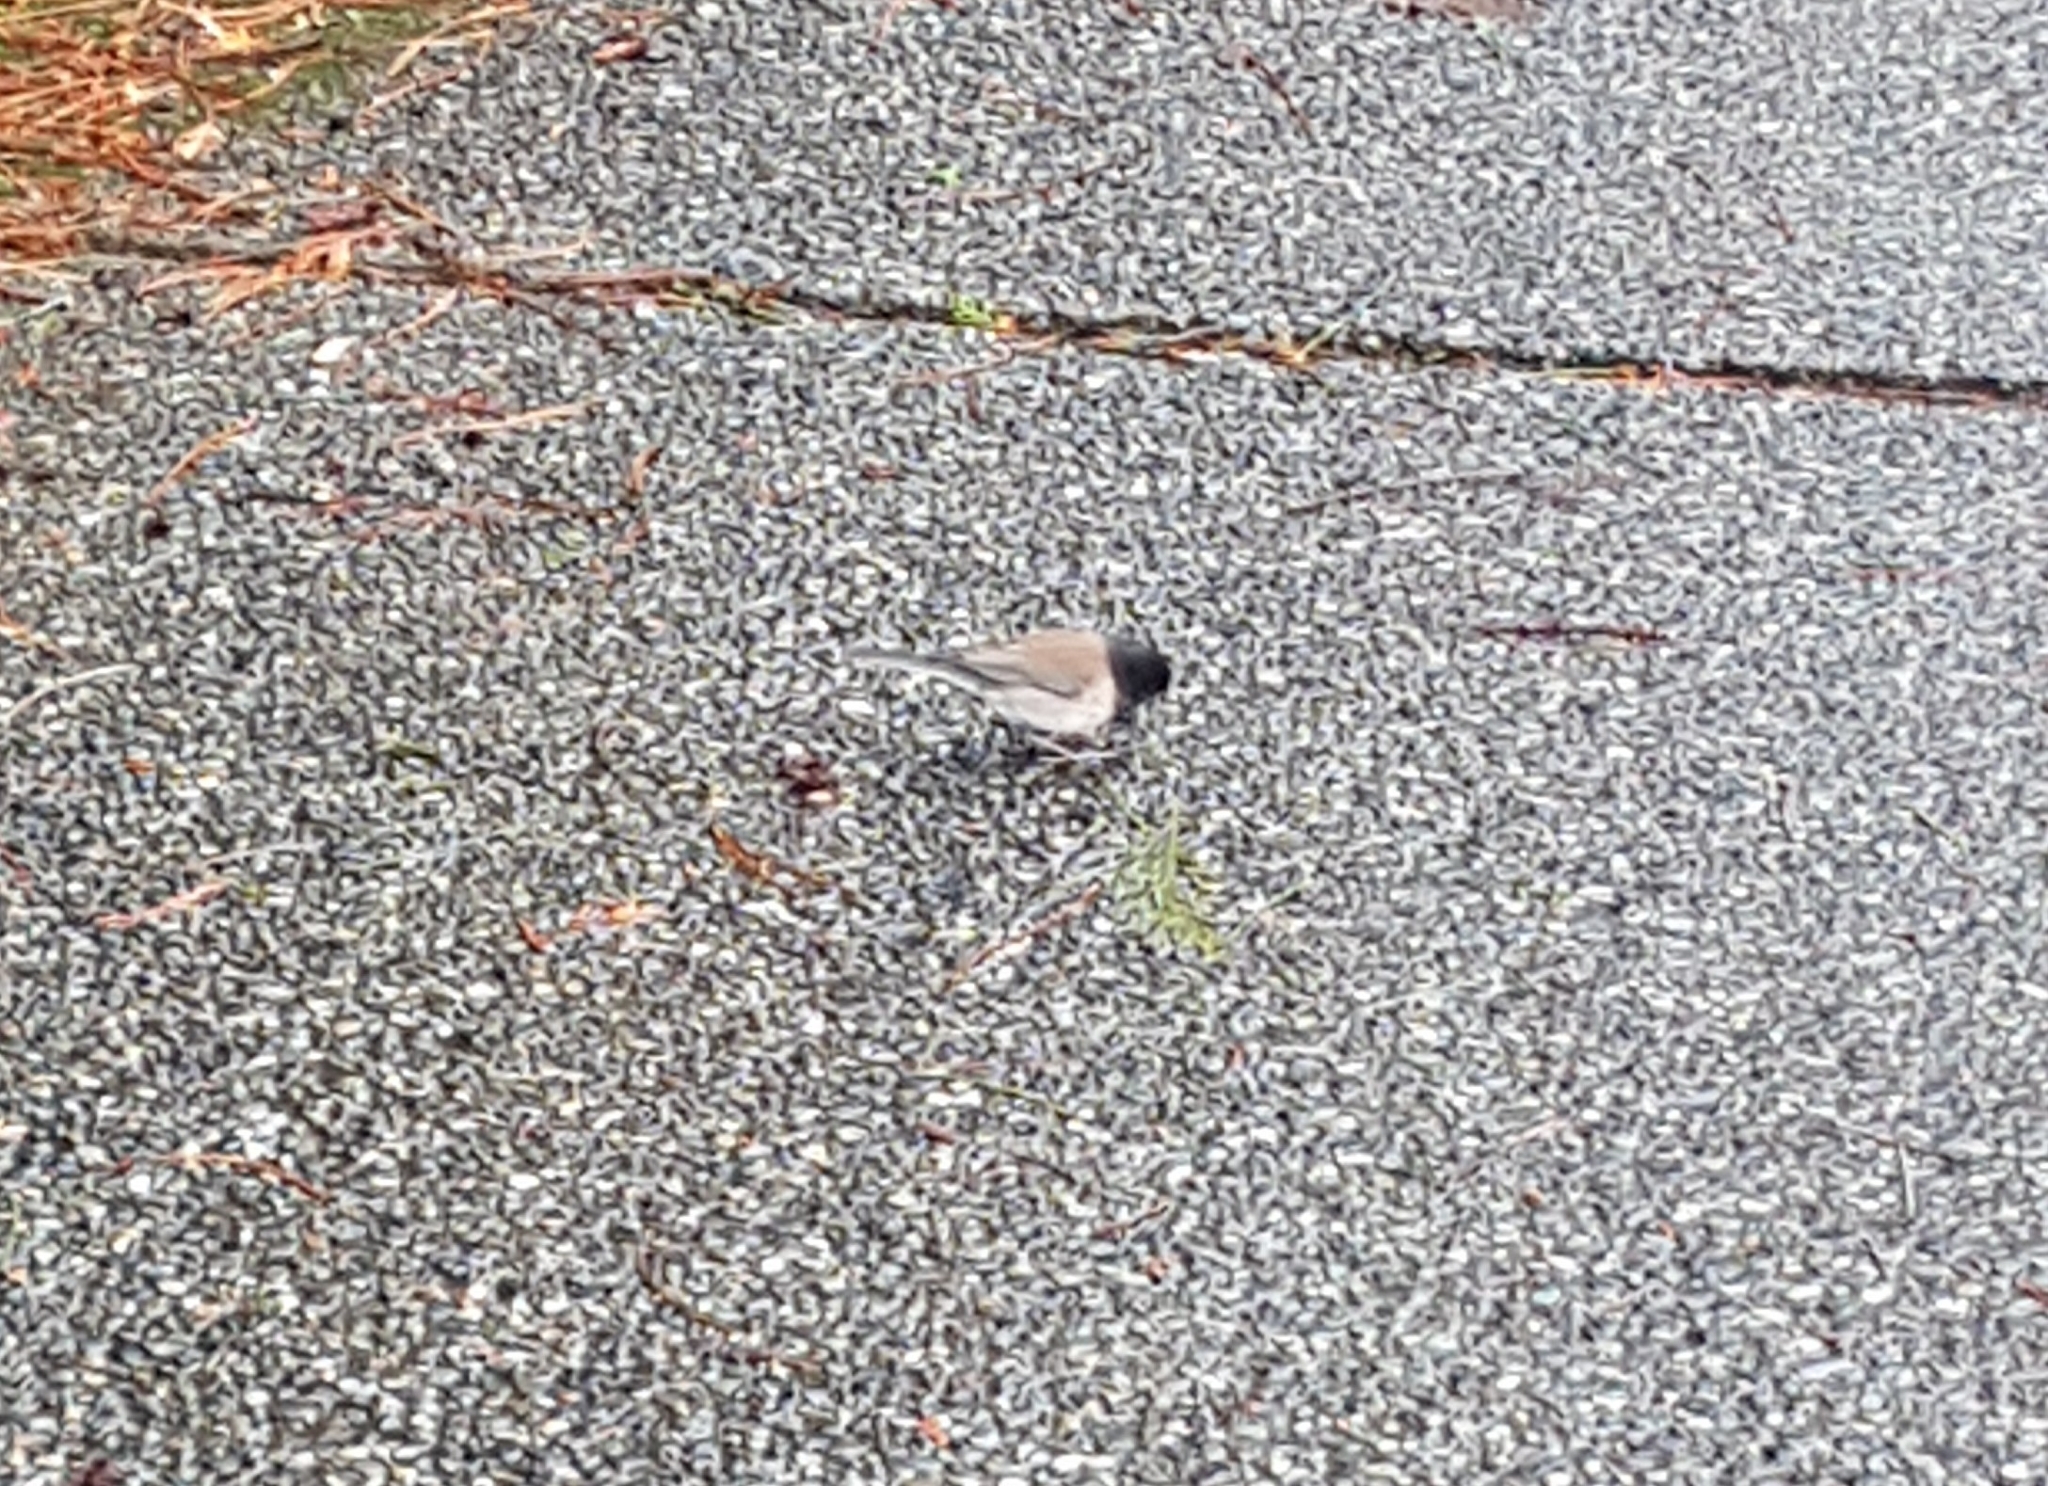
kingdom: Animalia
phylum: Chordata
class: Aves
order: Passeriformes
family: Passerellidae
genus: Junco
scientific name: Junco hyemalis
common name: Dark-eyed junco
